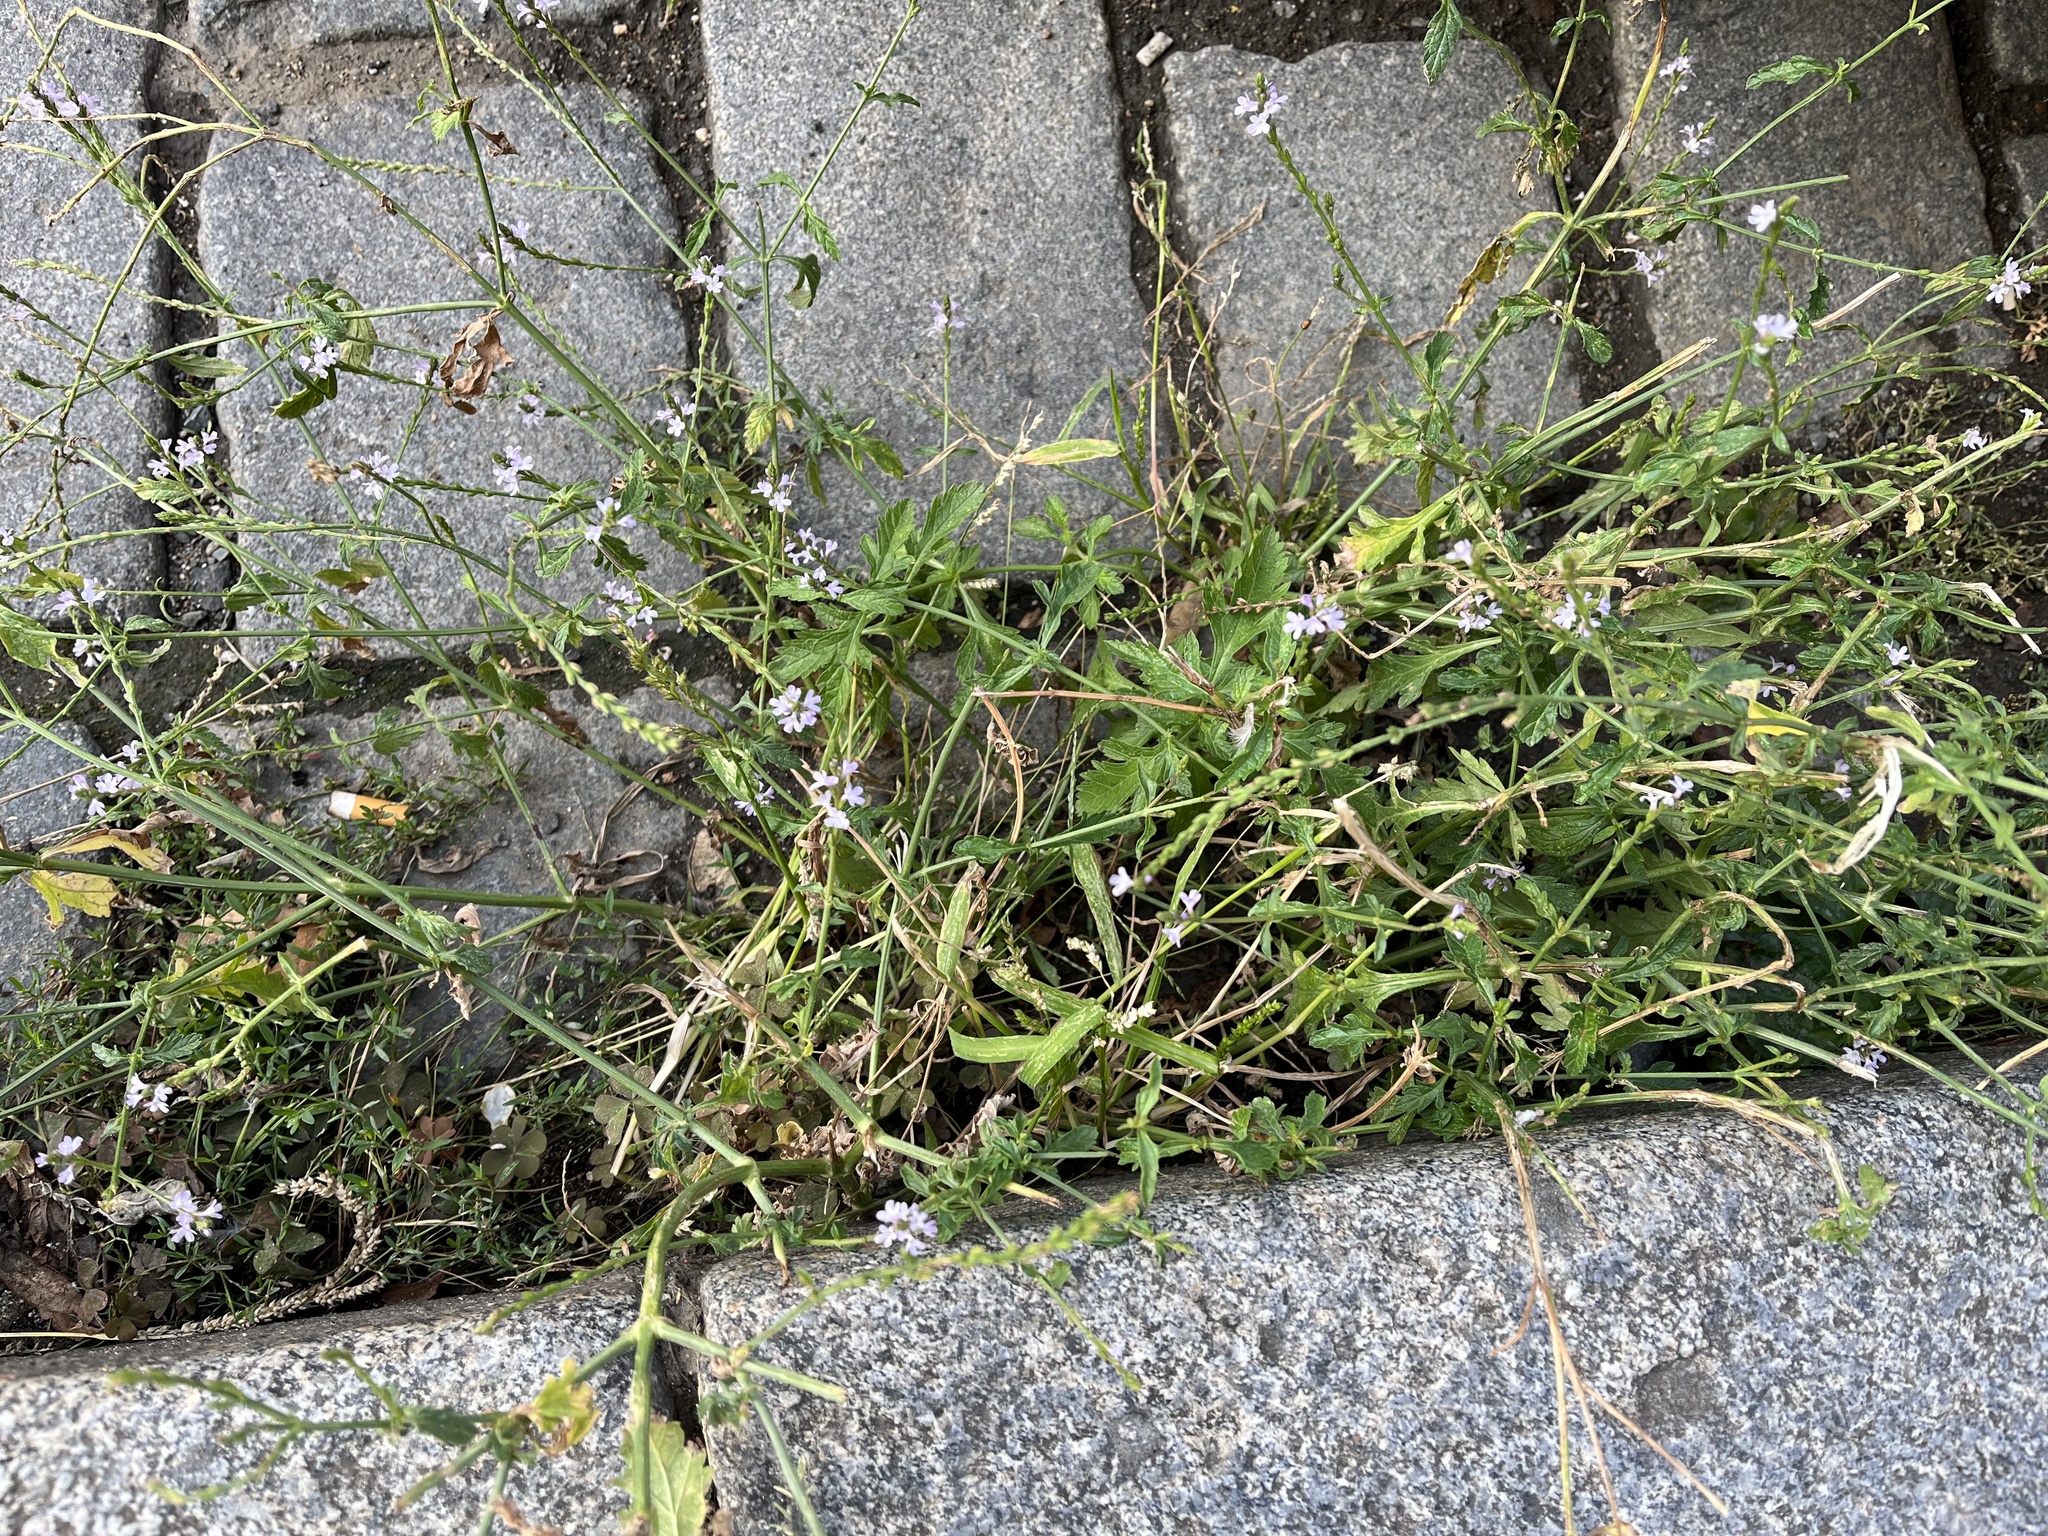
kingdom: Plantae
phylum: Tracheophyta
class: Magnoliopsida
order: Lamiales
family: Verbenaceae
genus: Verbena
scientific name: Verbena officinalis
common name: Vervain
